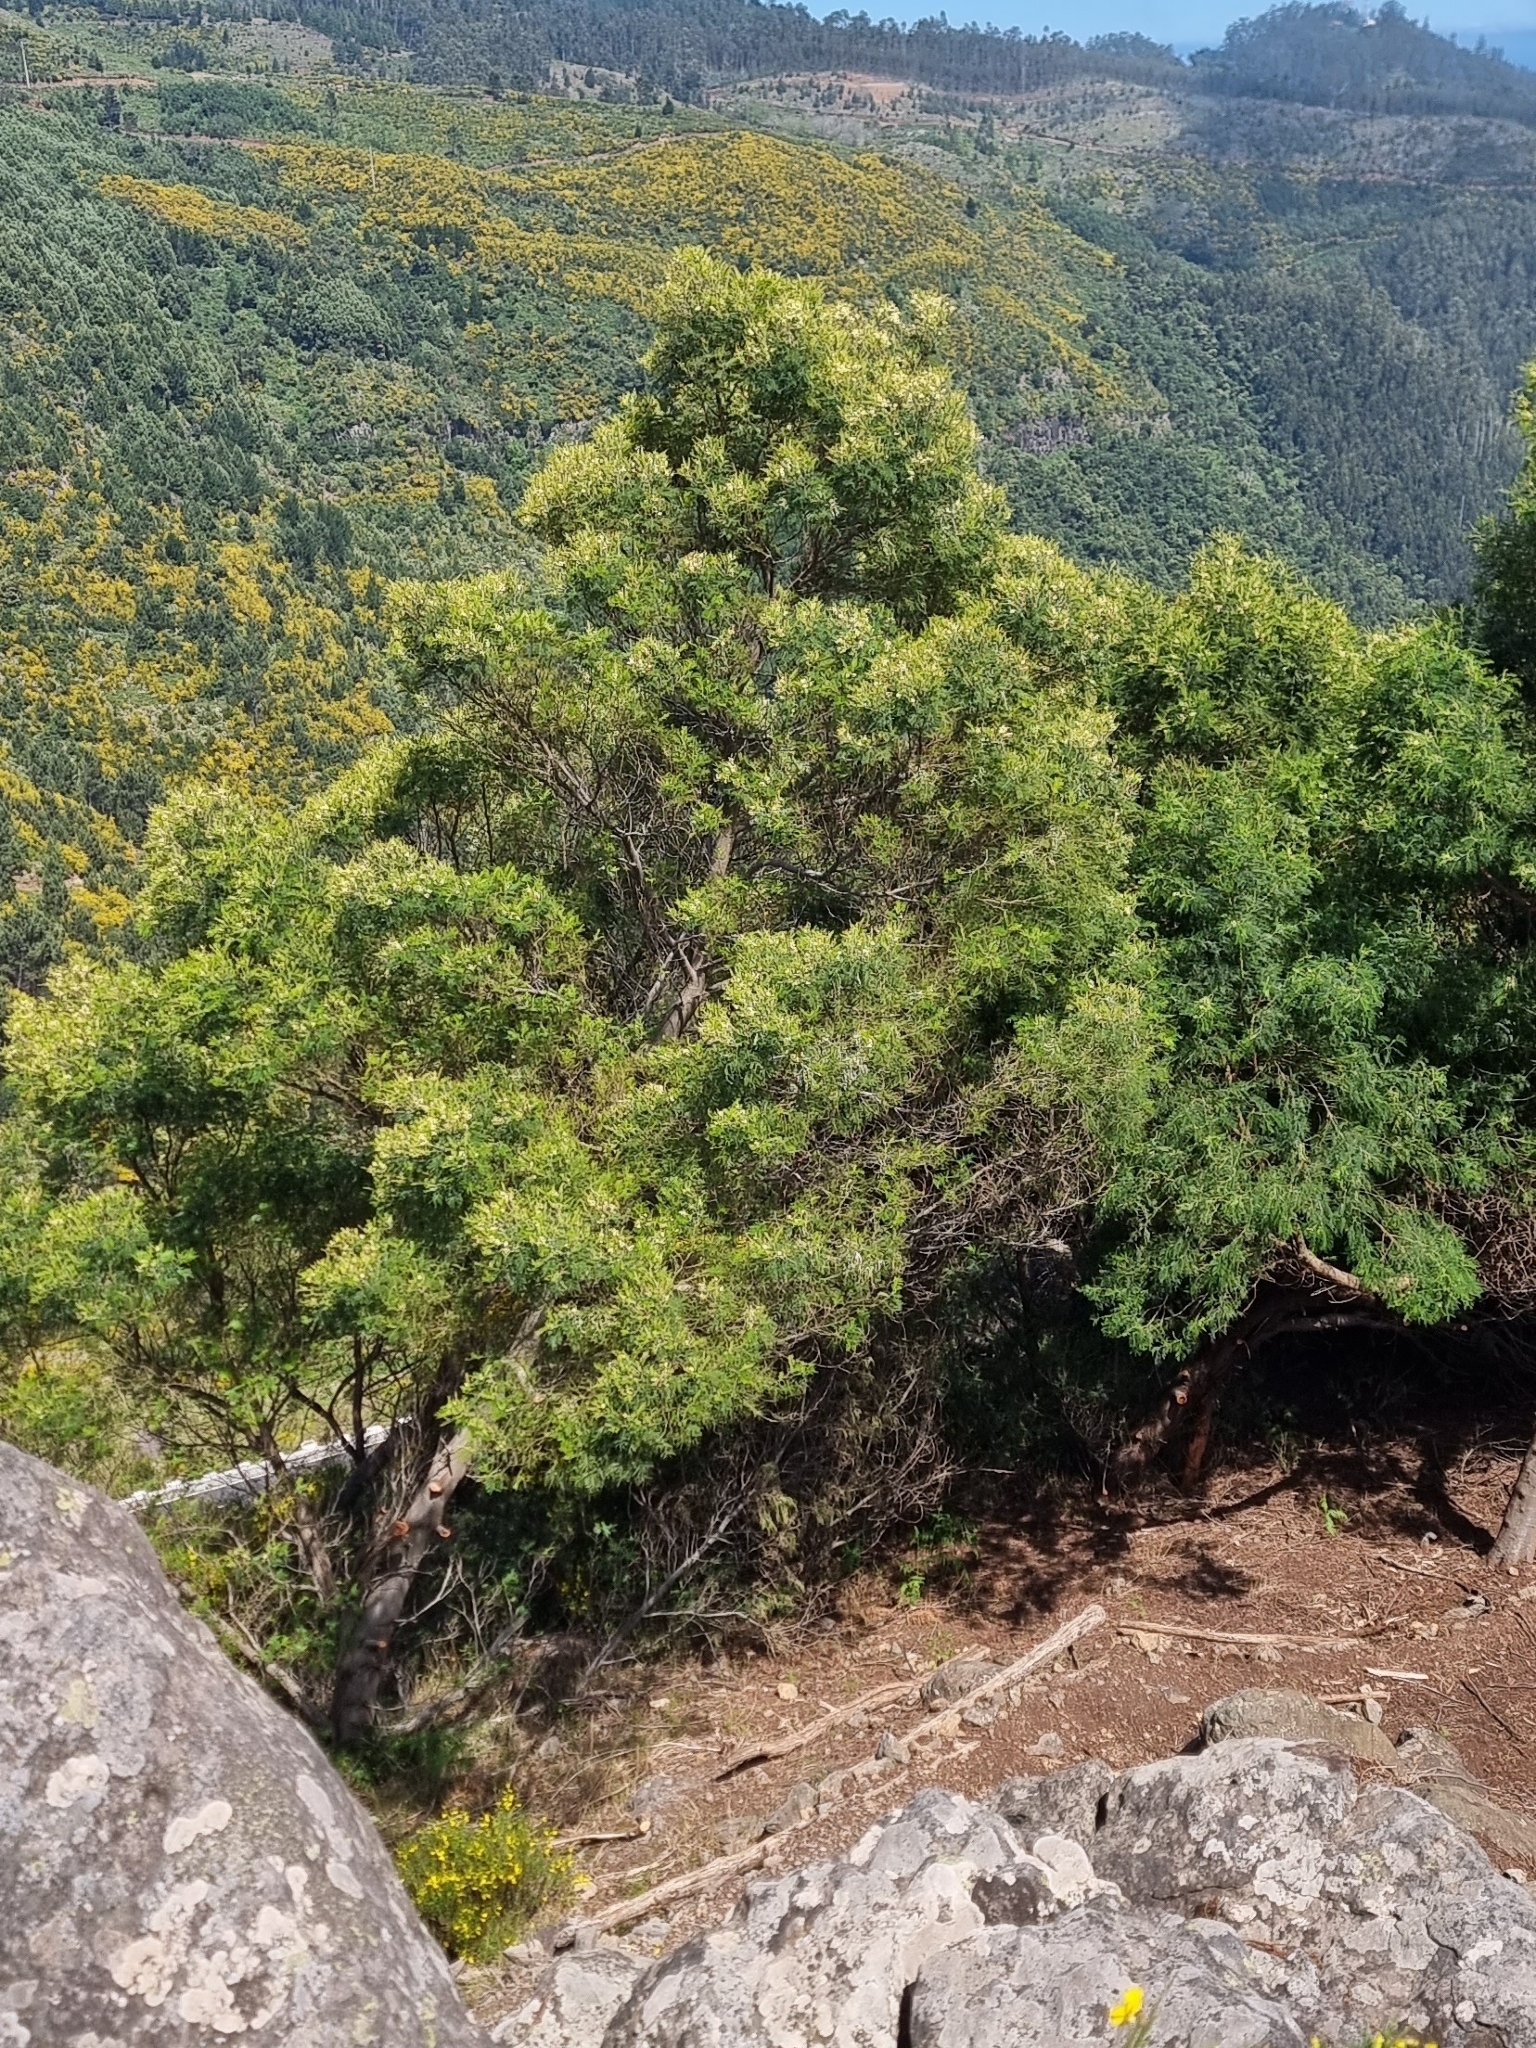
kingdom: Plantae
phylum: Tracheophyta
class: Magnoliopsida
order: Fabales
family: Fabaceae
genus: Acacia
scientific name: Acacia mearnsii
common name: Black wattle
